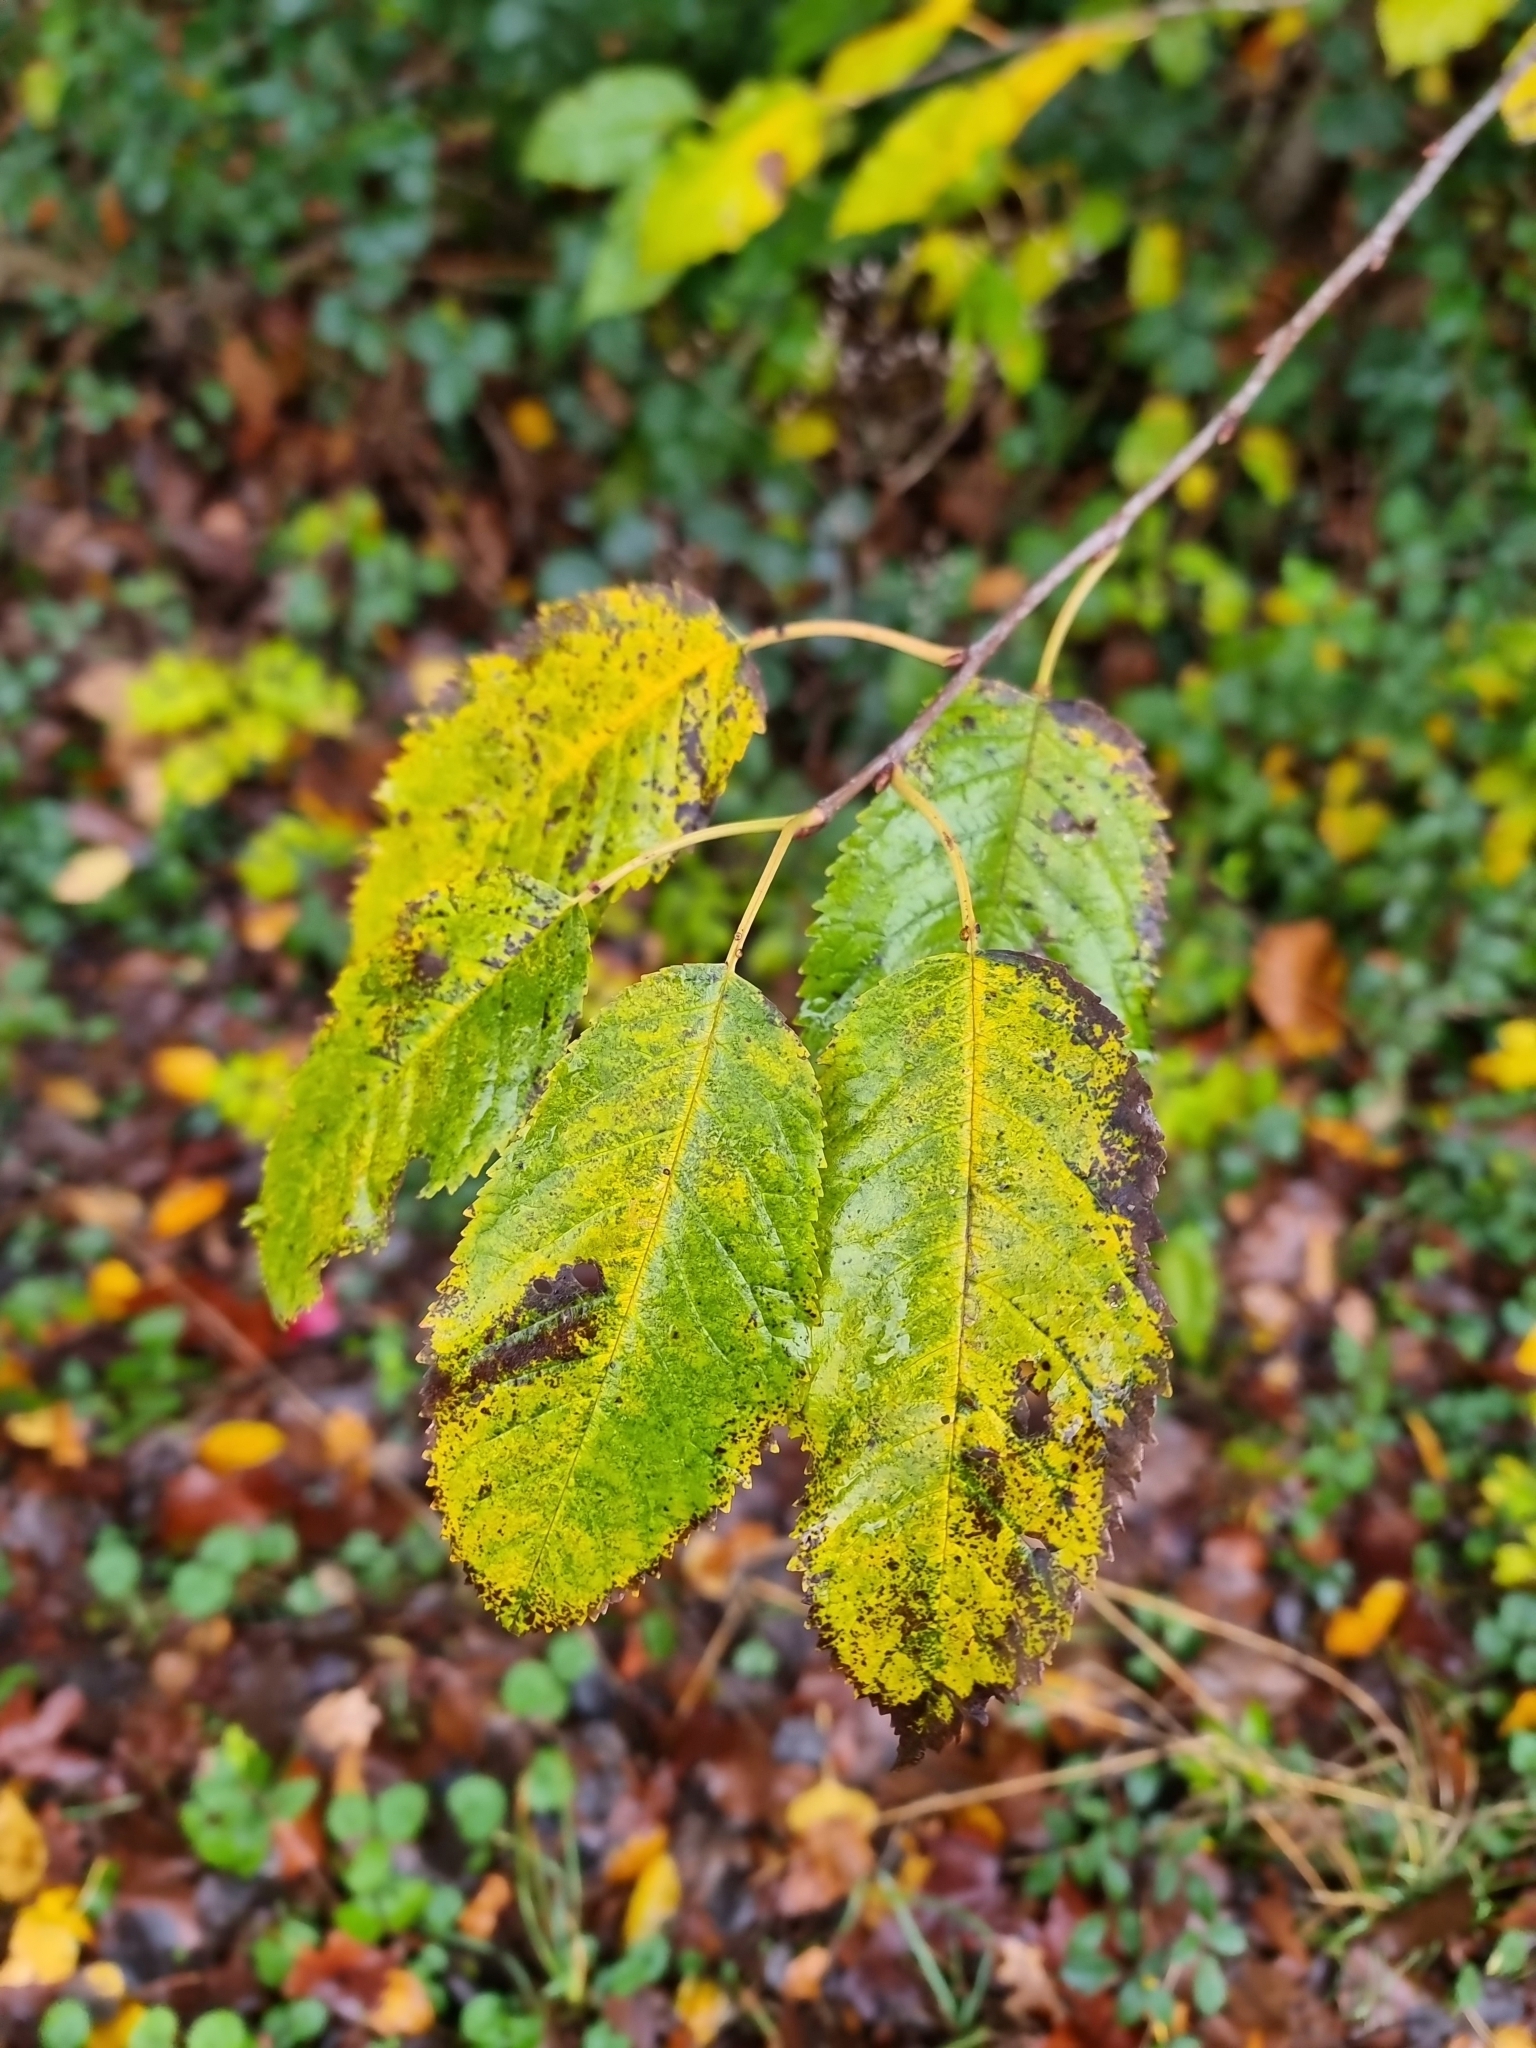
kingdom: Plantae
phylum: Tracheophyta
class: Magnoliopsida
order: Rosales
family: Rosaceae
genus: Prunus
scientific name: Prunus avium
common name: Sweet cherry
